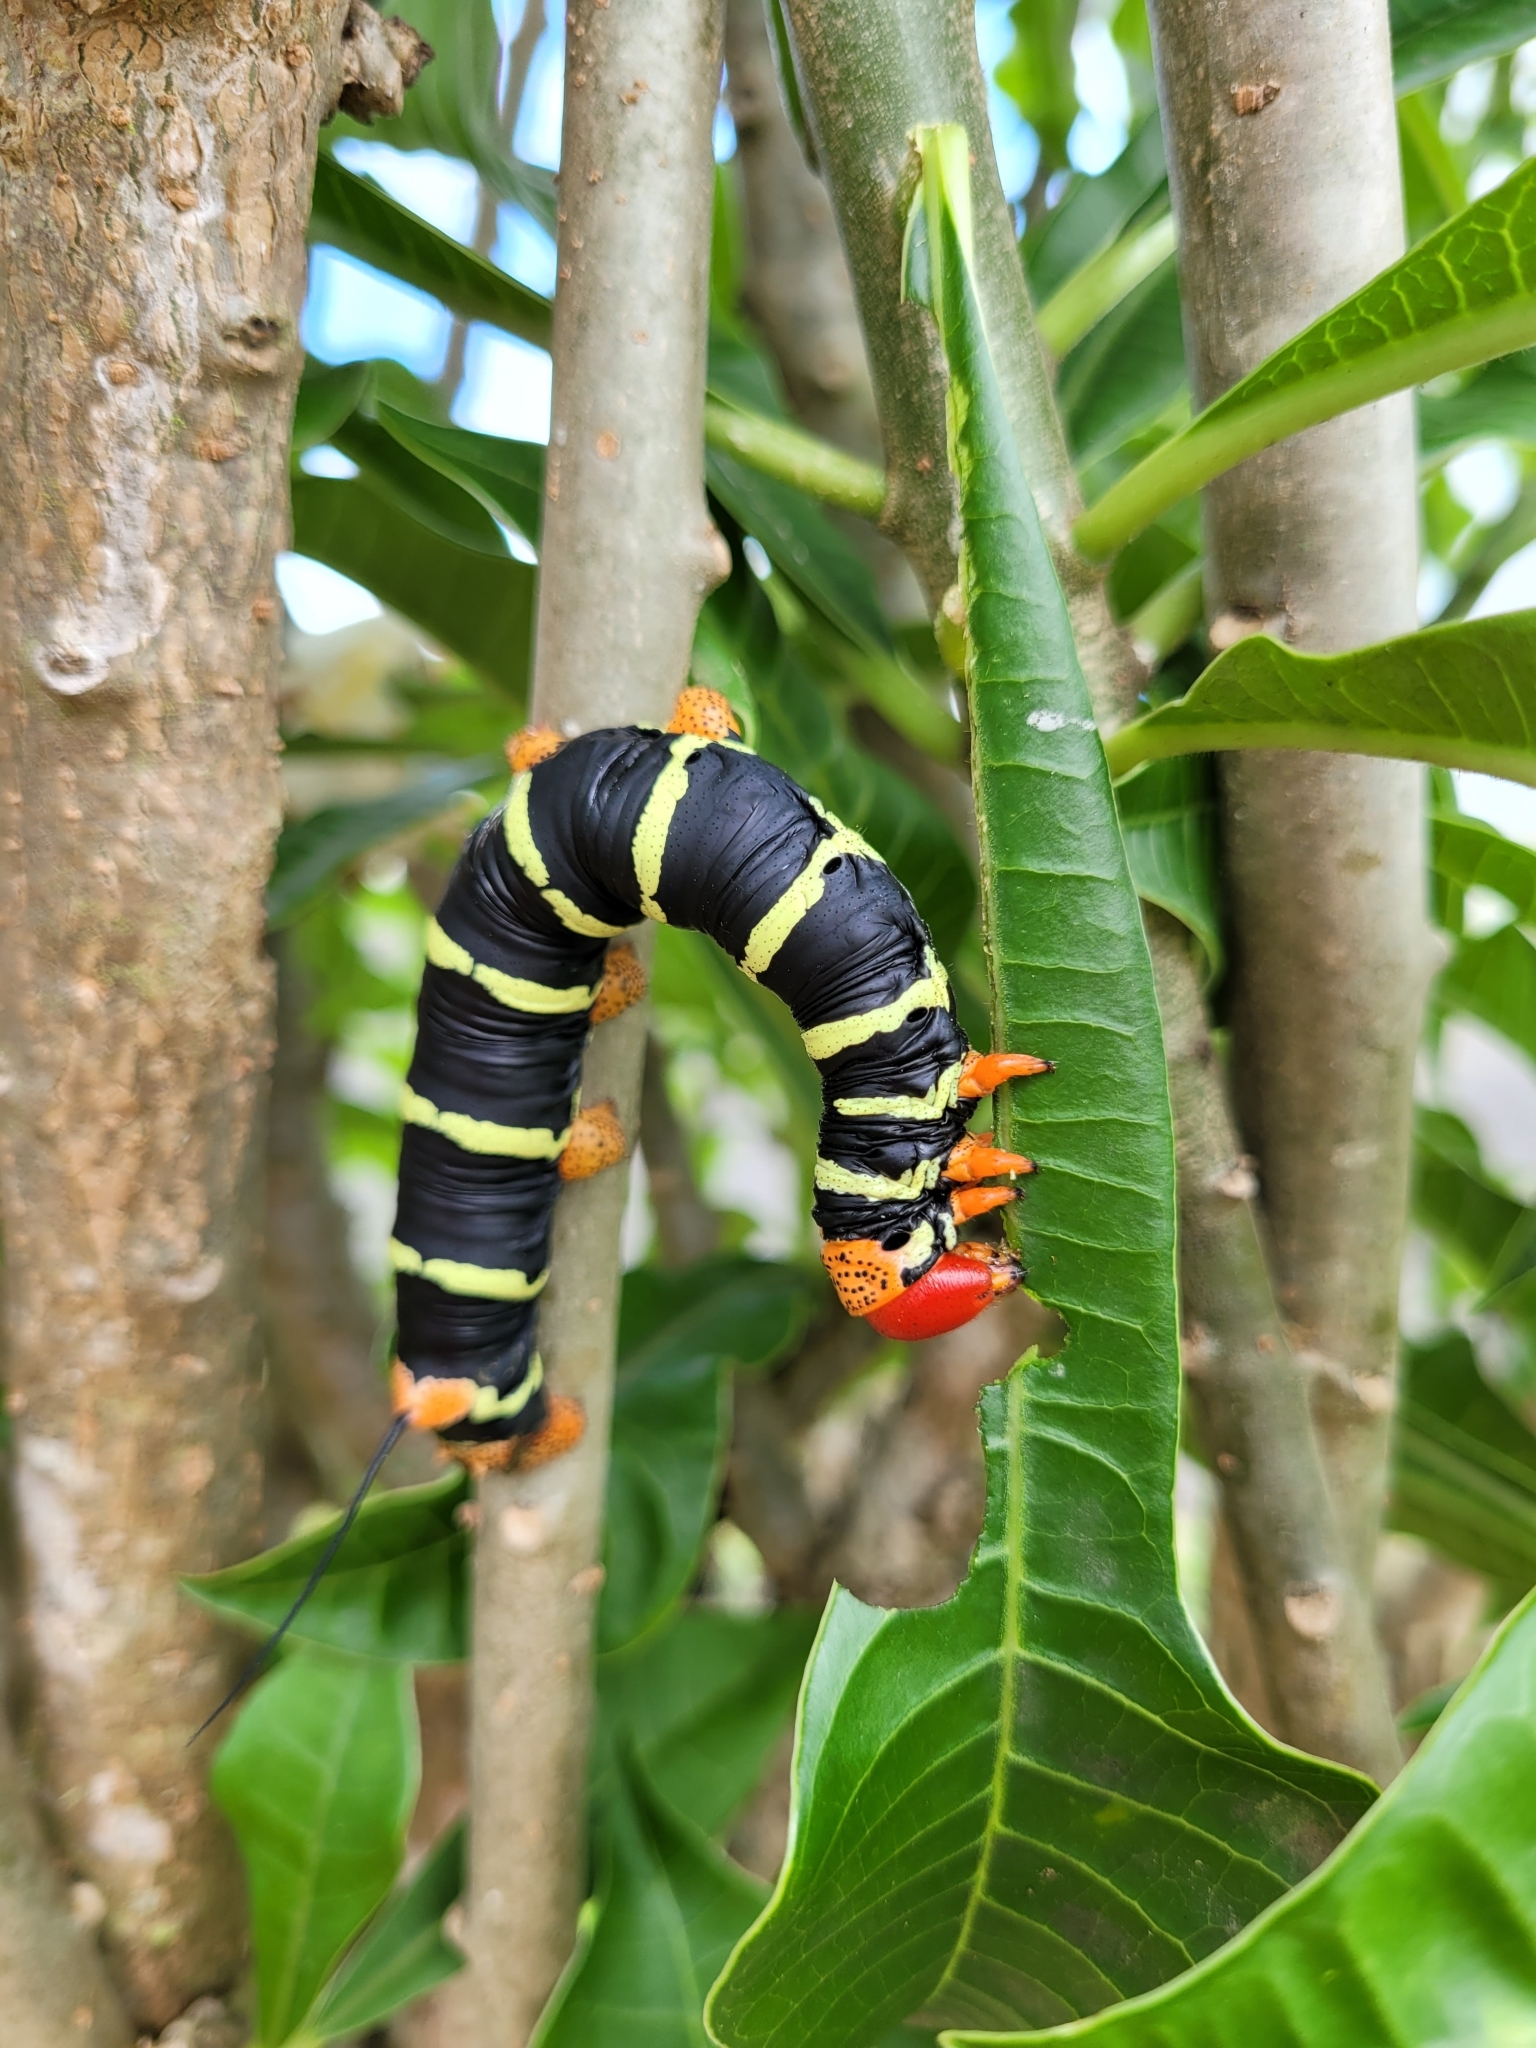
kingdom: Animalia
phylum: Arthropoda
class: Insecta
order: Lepidoptera
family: Sphingidae
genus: Pseudosphinx
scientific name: Pseudosphinx tetrio
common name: Tetrio sphinx
